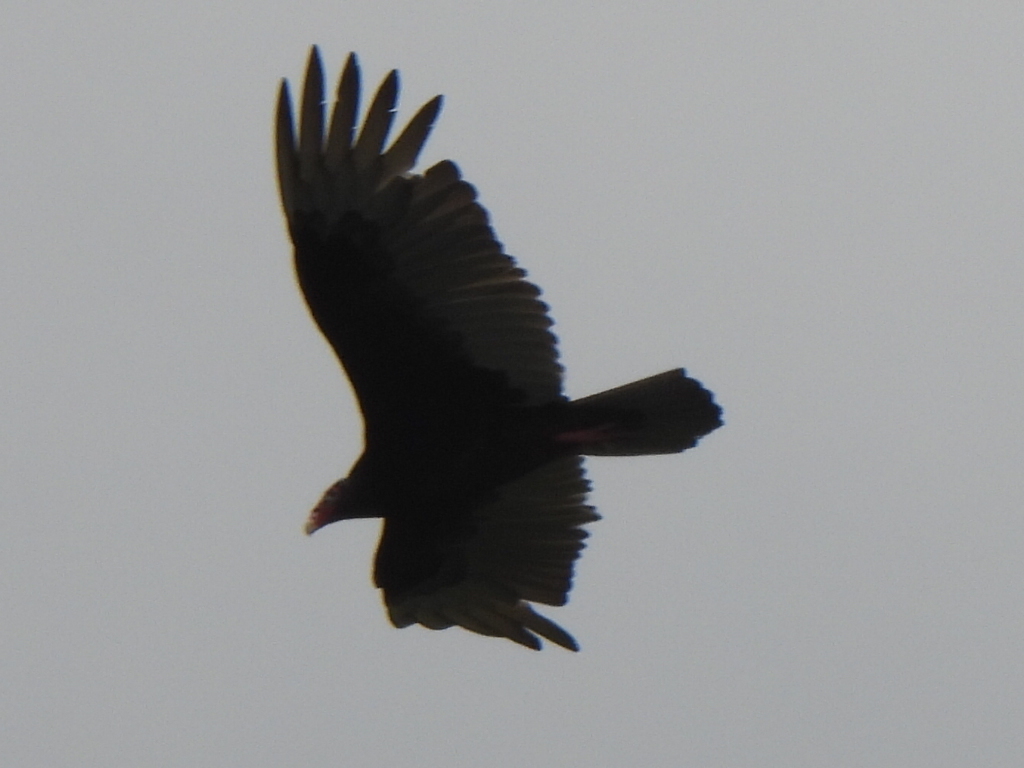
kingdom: Animalia
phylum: Chordata
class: Aves
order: Accipitriformes
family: Cathartidae
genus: Cathartes
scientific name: Cathartes aura
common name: Turkey vulture
